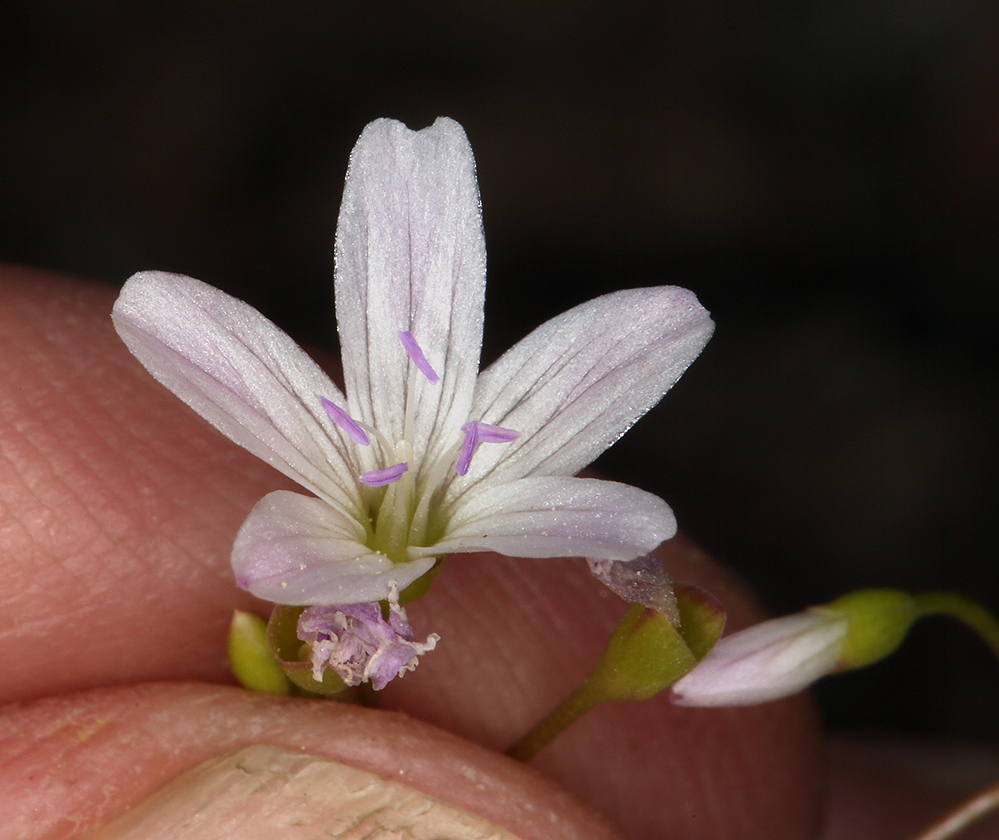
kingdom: Plantae
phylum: Tracheophyta
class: Magnoliopsida
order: Caryophyllales
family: Montiaceae
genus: Montia
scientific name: Montia parvifolia
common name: Small-leaved blinks
